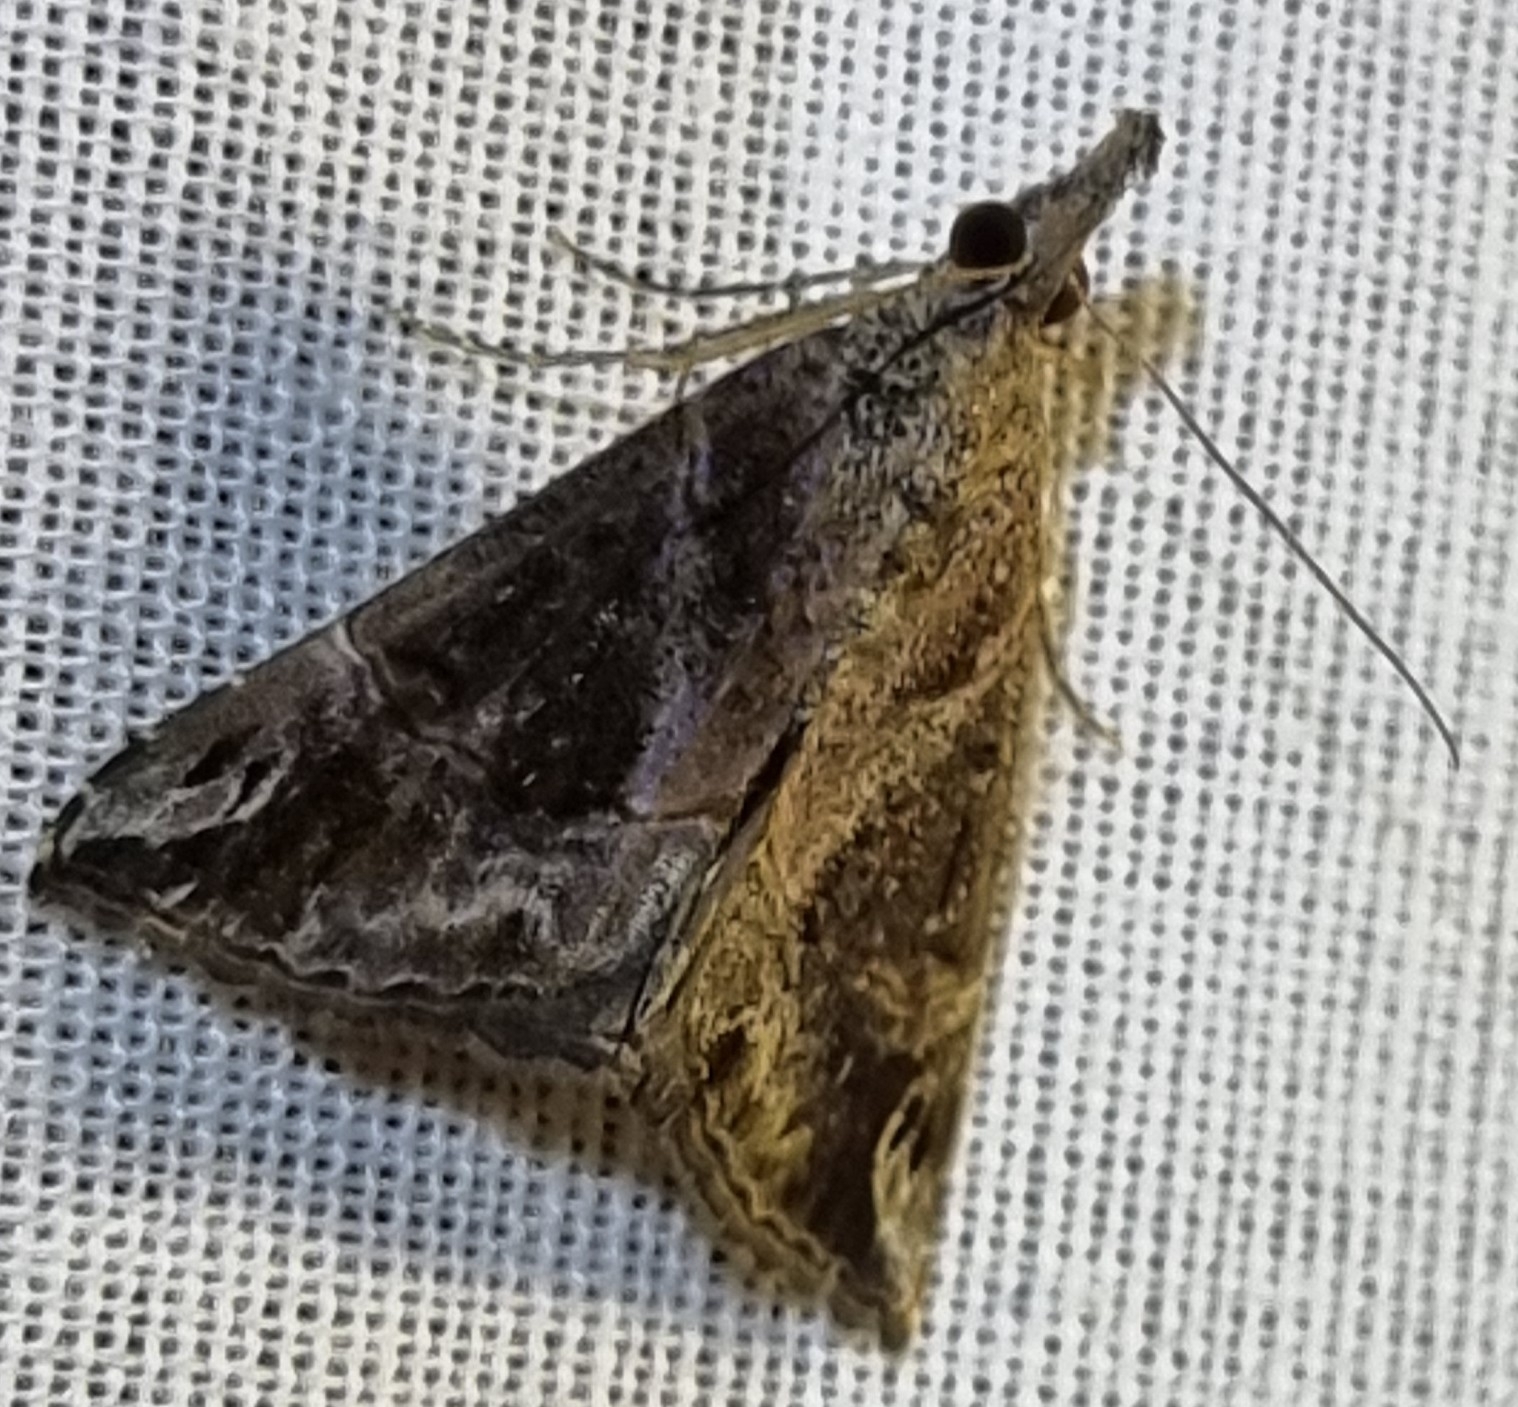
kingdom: Animalia
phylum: Arthropoda
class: Insecta
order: Lepidoptera
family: Erebidae
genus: Hypena
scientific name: Hypena commixtalis
